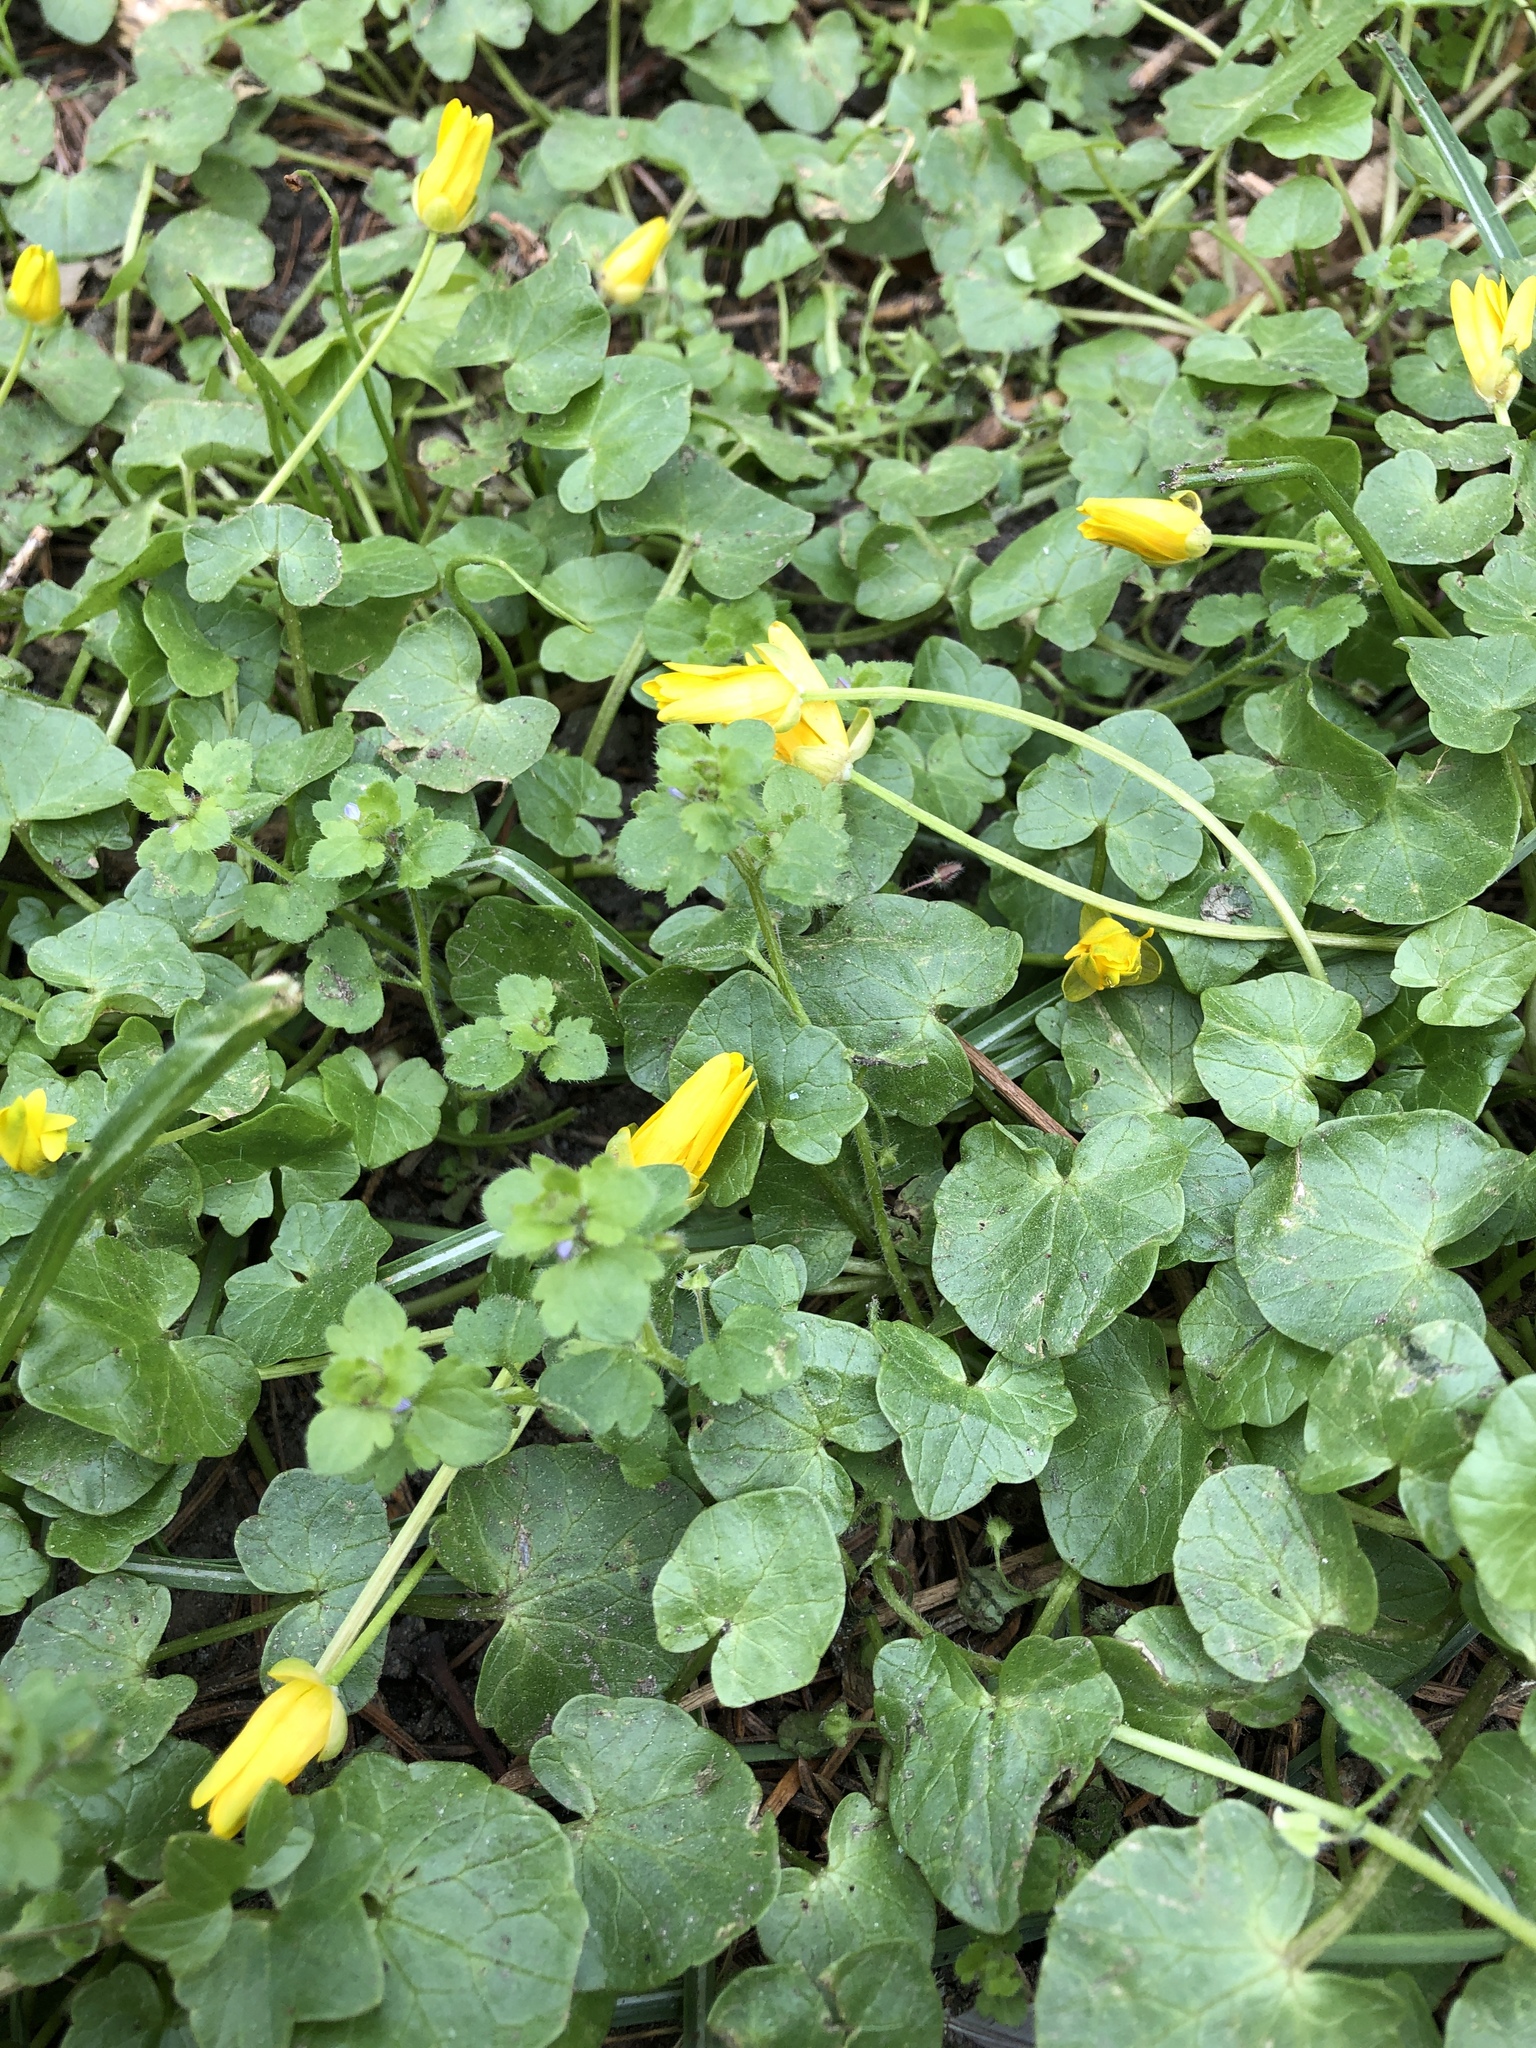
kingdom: Plantae
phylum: Tracheophyta
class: Magnoliopsida
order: Ranunculales
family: Ranunculaceae
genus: Ficaria
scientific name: Ficaria verna
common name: Lesser celandine
